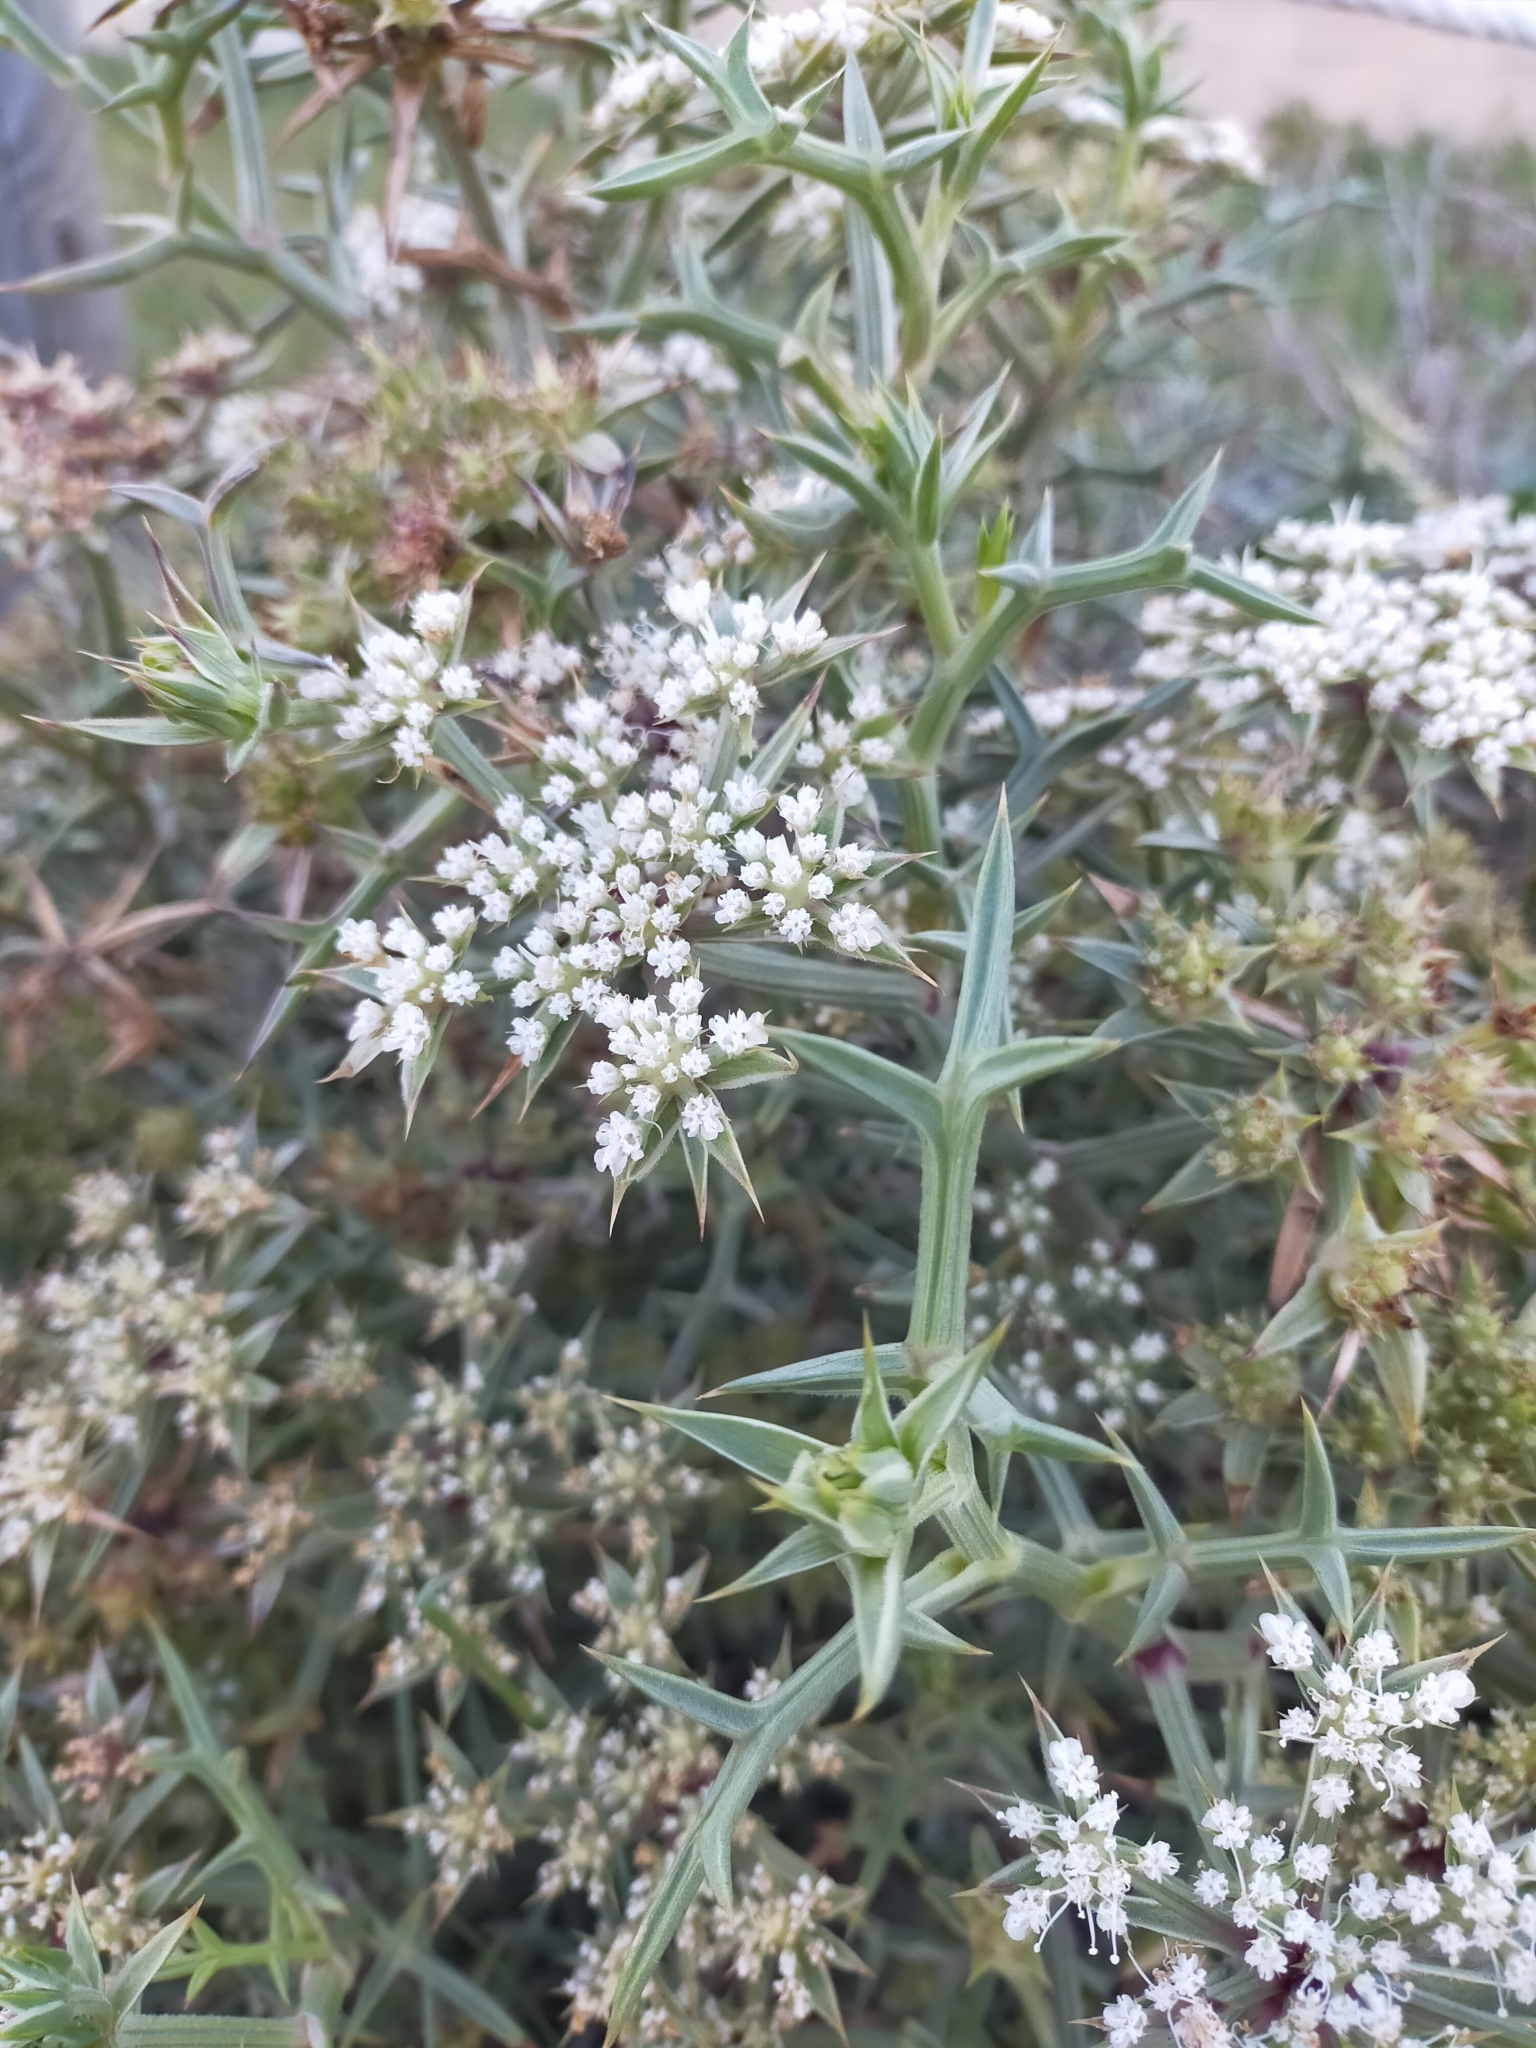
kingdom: Plantae
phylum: Tracheophyta
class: Magnoliopsida
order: Apiales
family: Apiaceae
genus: Echinophora
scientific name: Echinophora spinosa
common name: Prickly samphire
